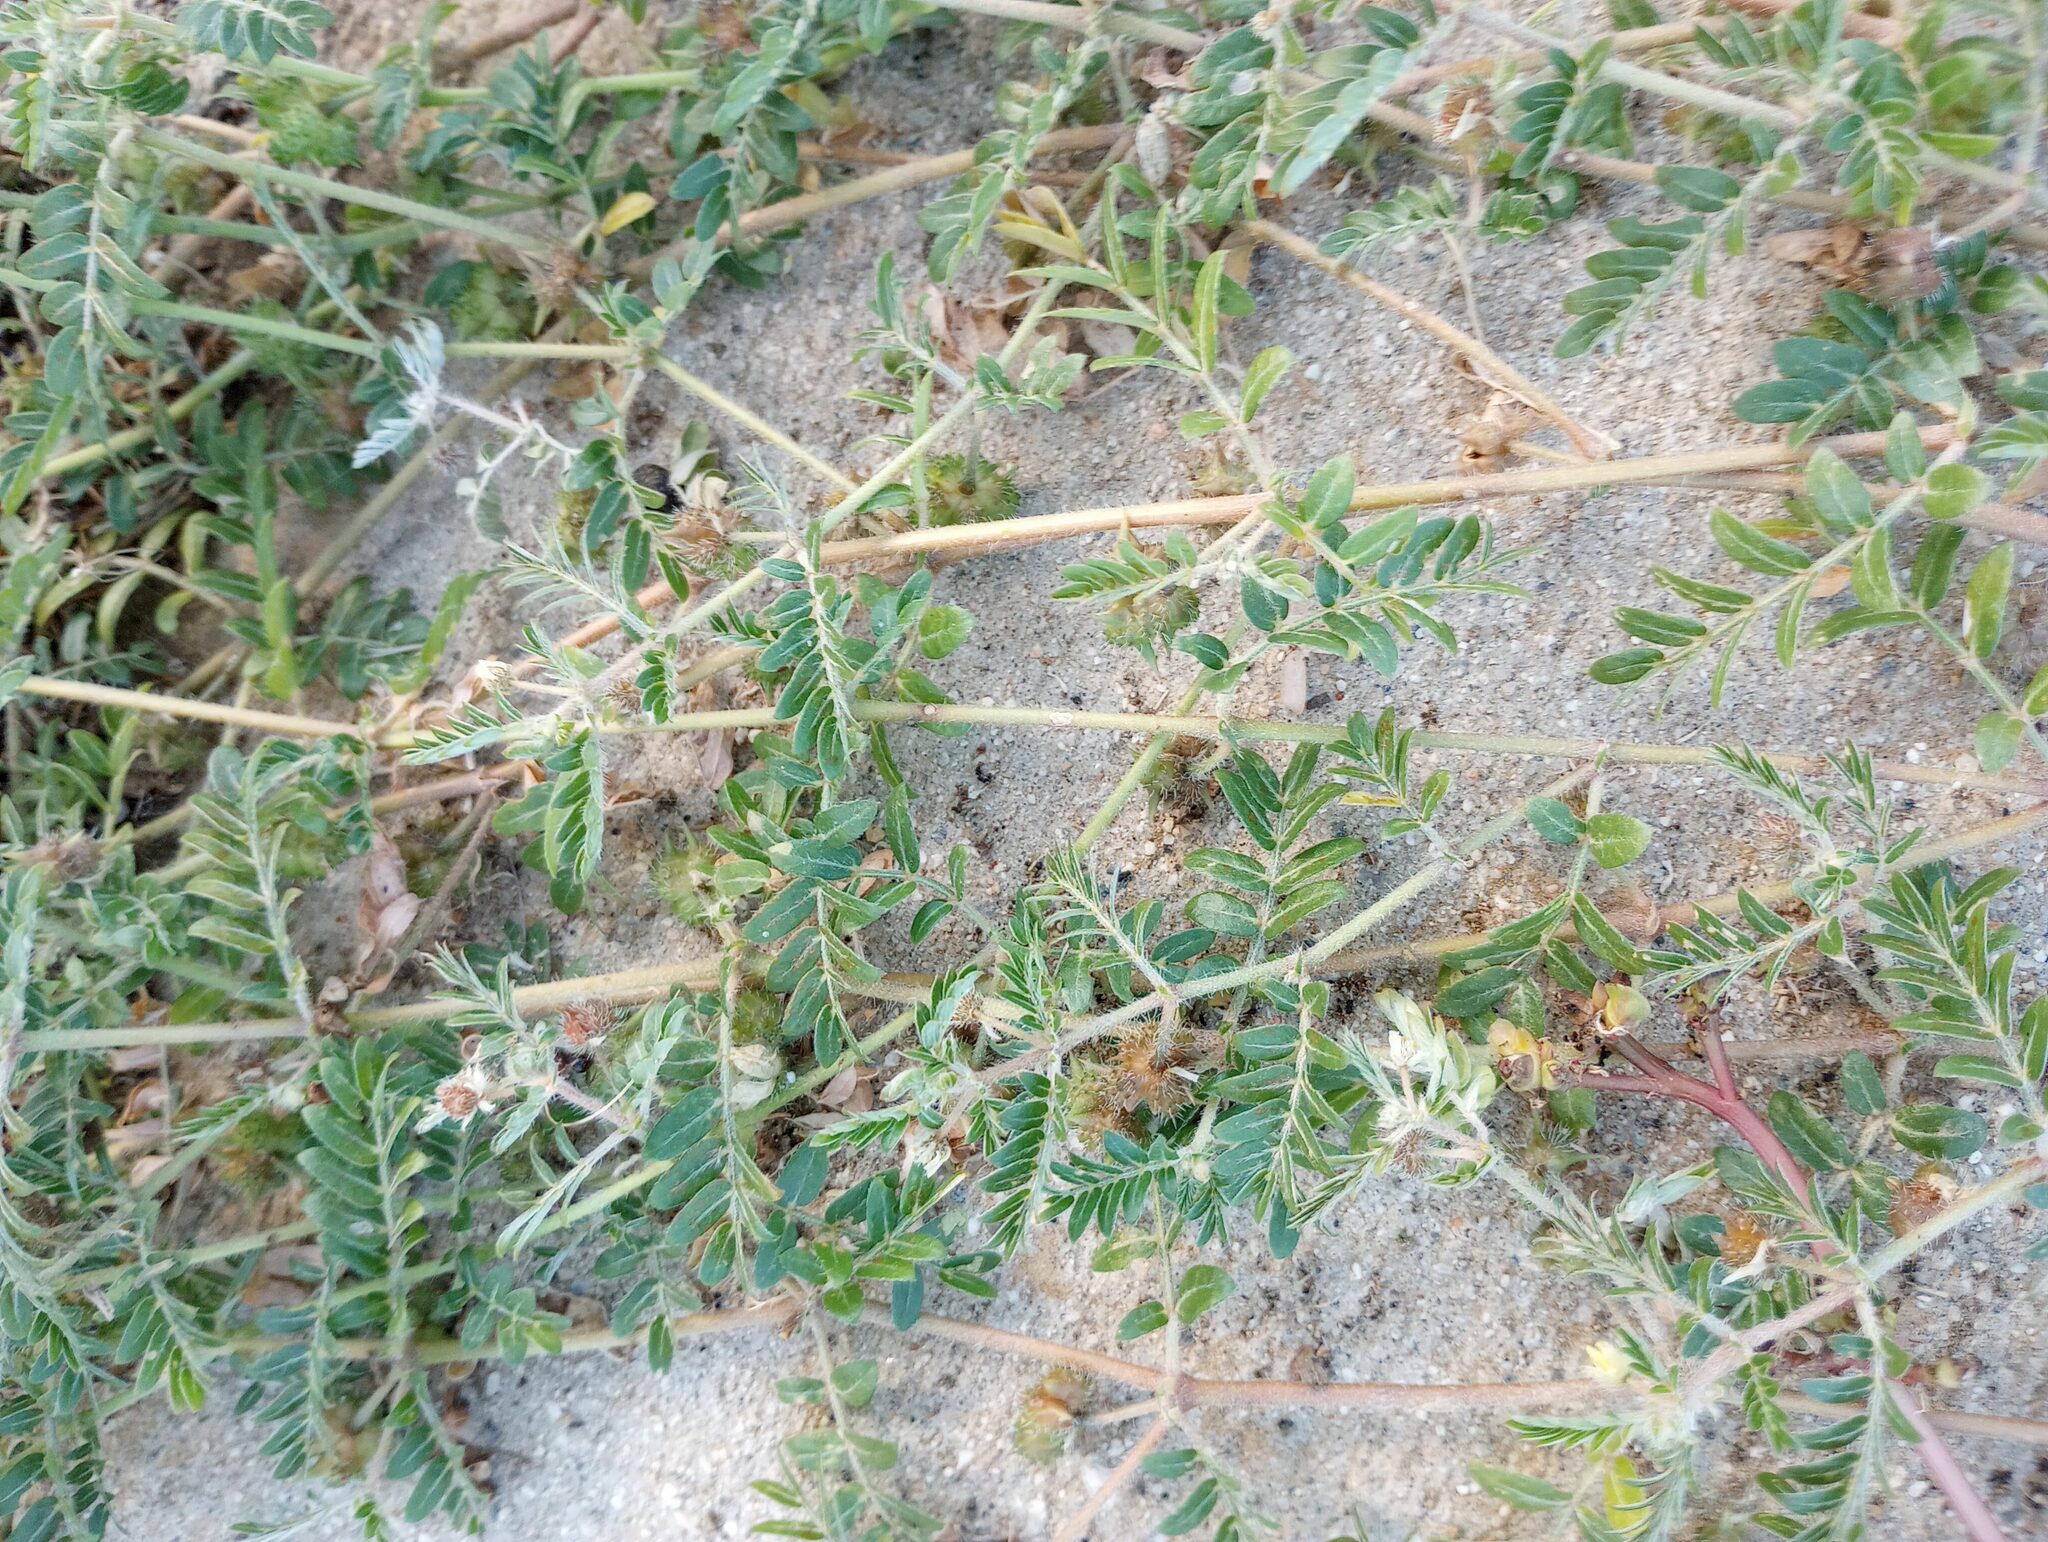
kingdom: Plantae
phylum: Tracheophyta
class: Magnoliopsida
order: Zygophyllales
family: Zygophyllaceae
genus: Tribulus
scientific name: Tribulus terrestris
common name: Puncturevine
